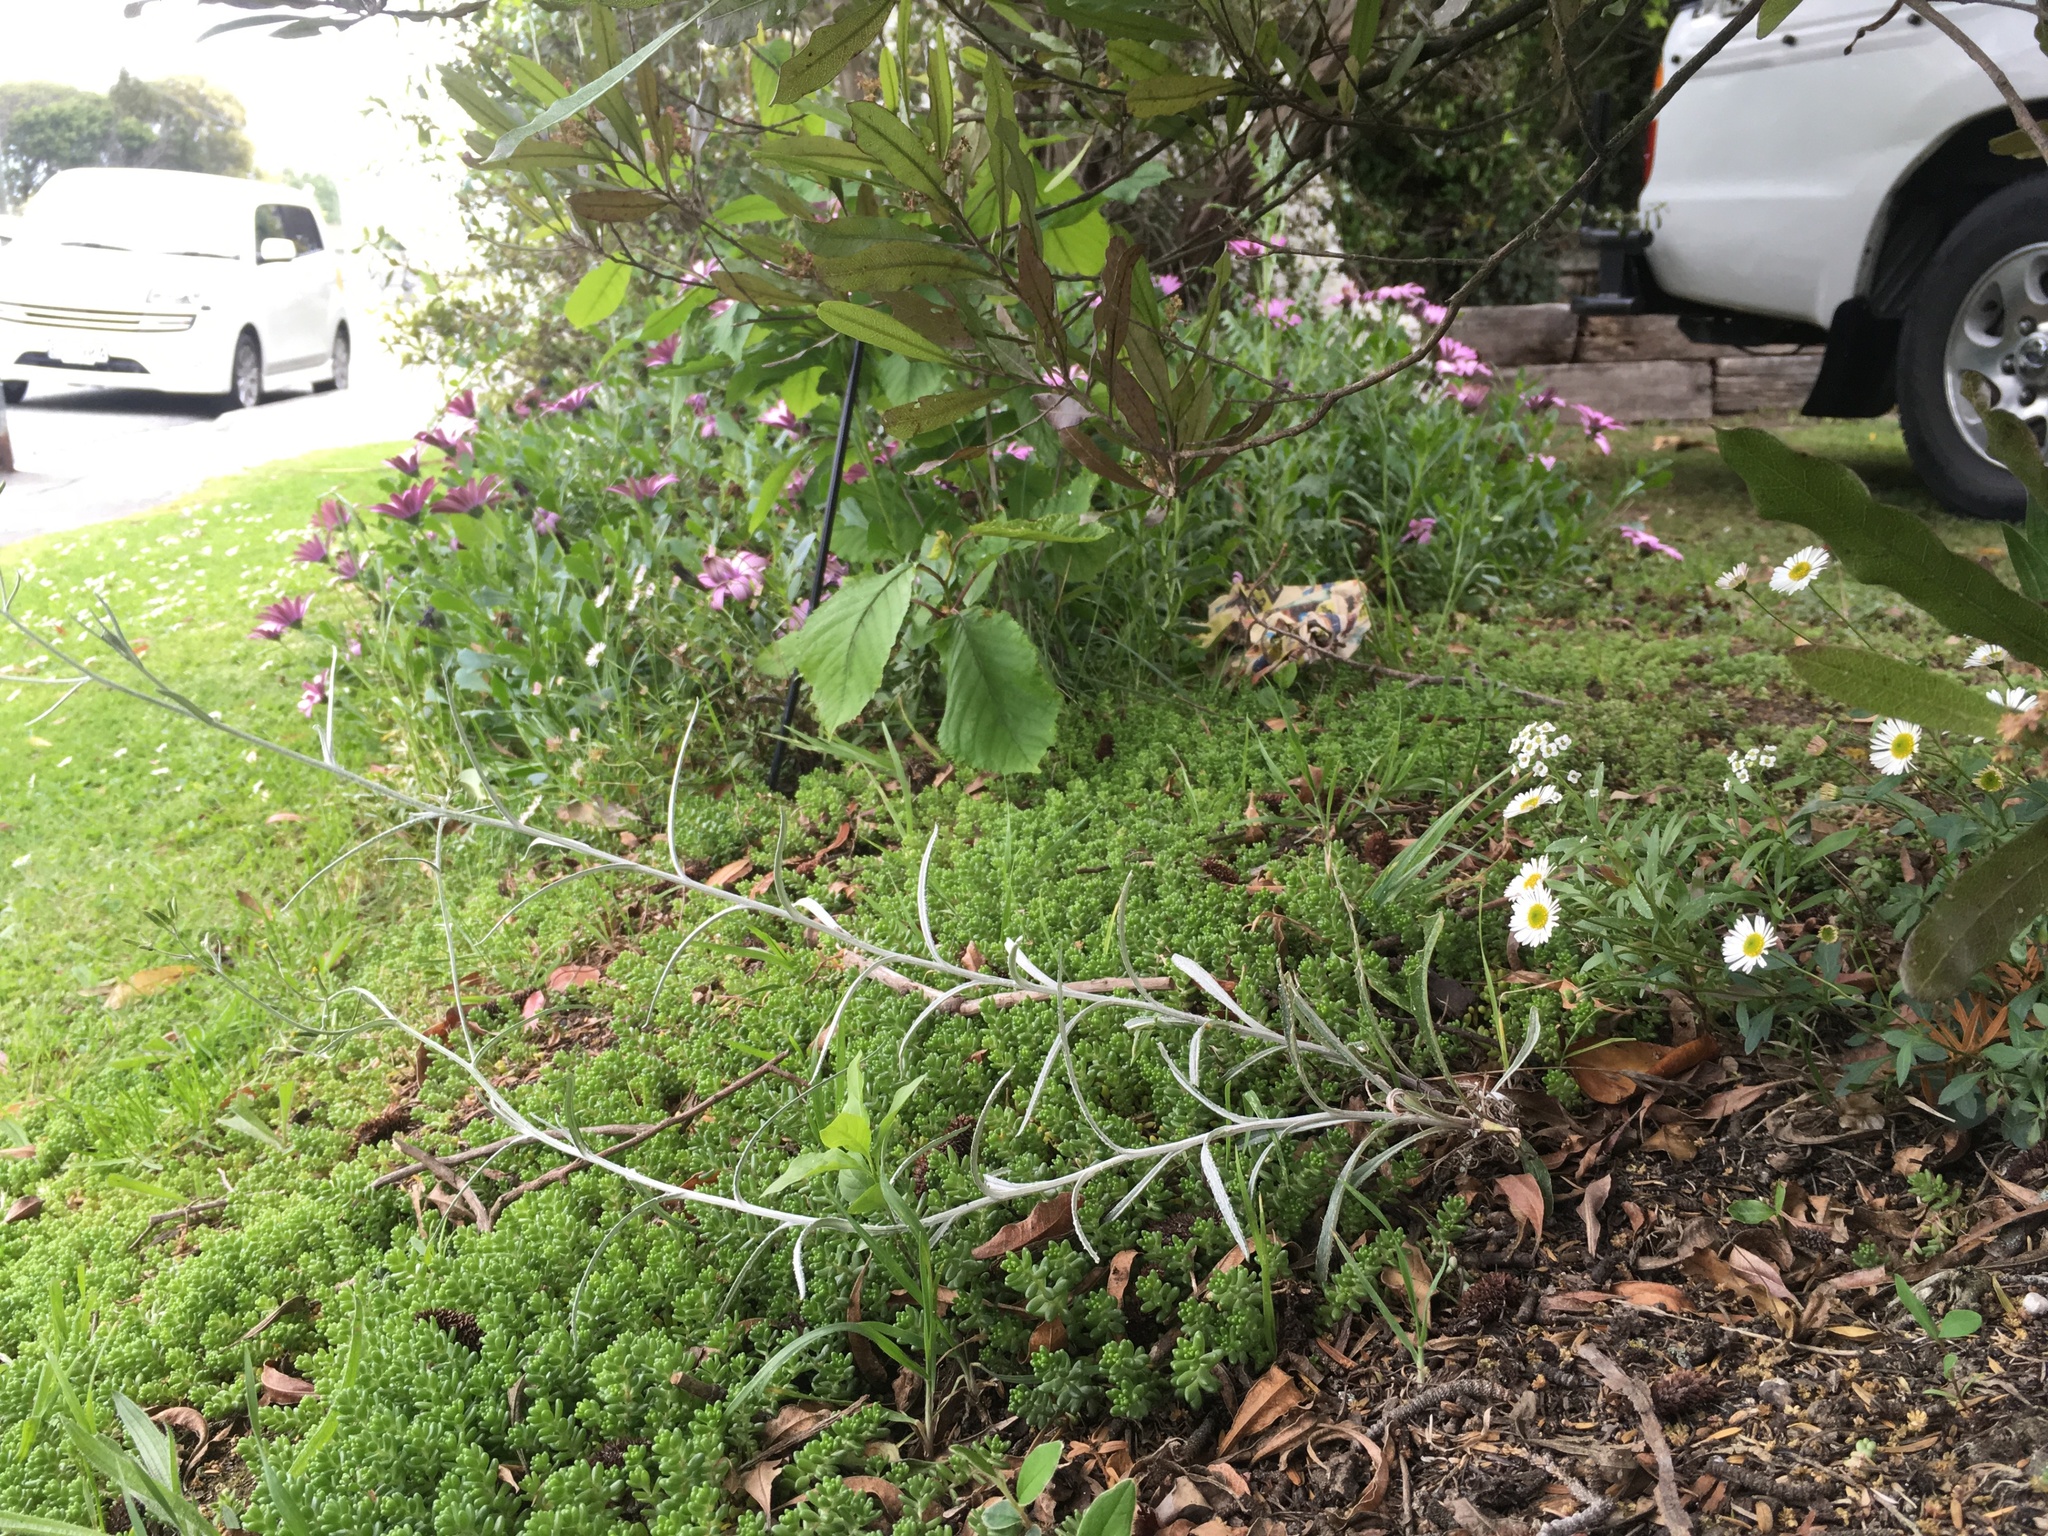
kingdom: Plantae
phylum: Tracheophyta
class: Magnoliopsida
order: Asterales
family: Asteraceae
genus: Senecio
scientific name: Senecio quadridentatus
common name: Cotton fireweed
